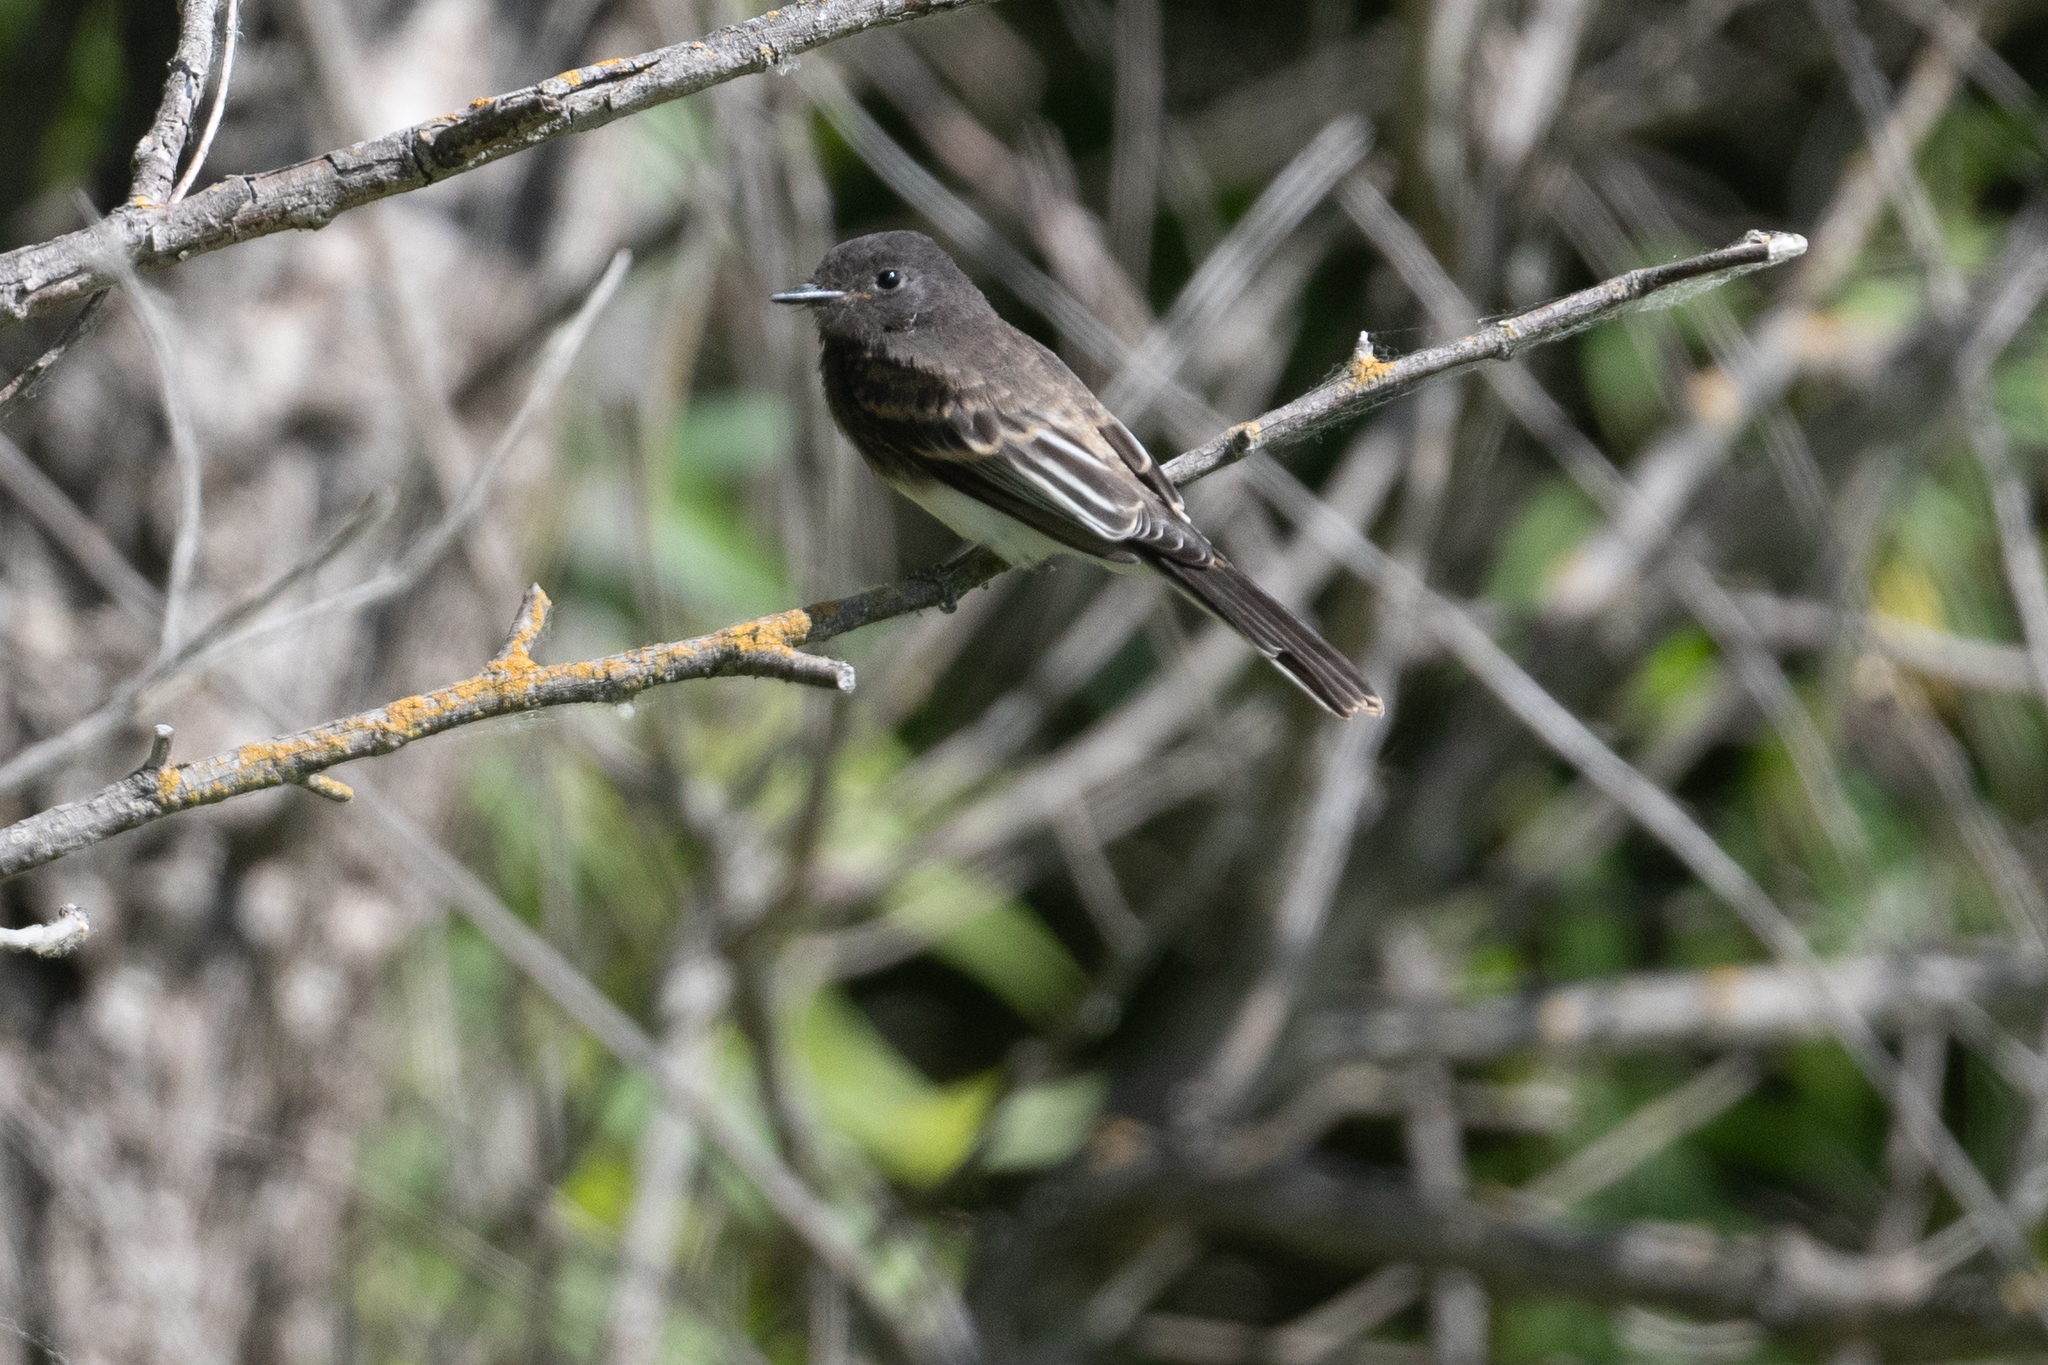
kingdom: Animalia
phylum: Chordata
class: Aves
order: Passeriformes
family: Tyrannidae
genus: Sayornis
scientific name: Sayornis nigricans
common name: Black phoebe
